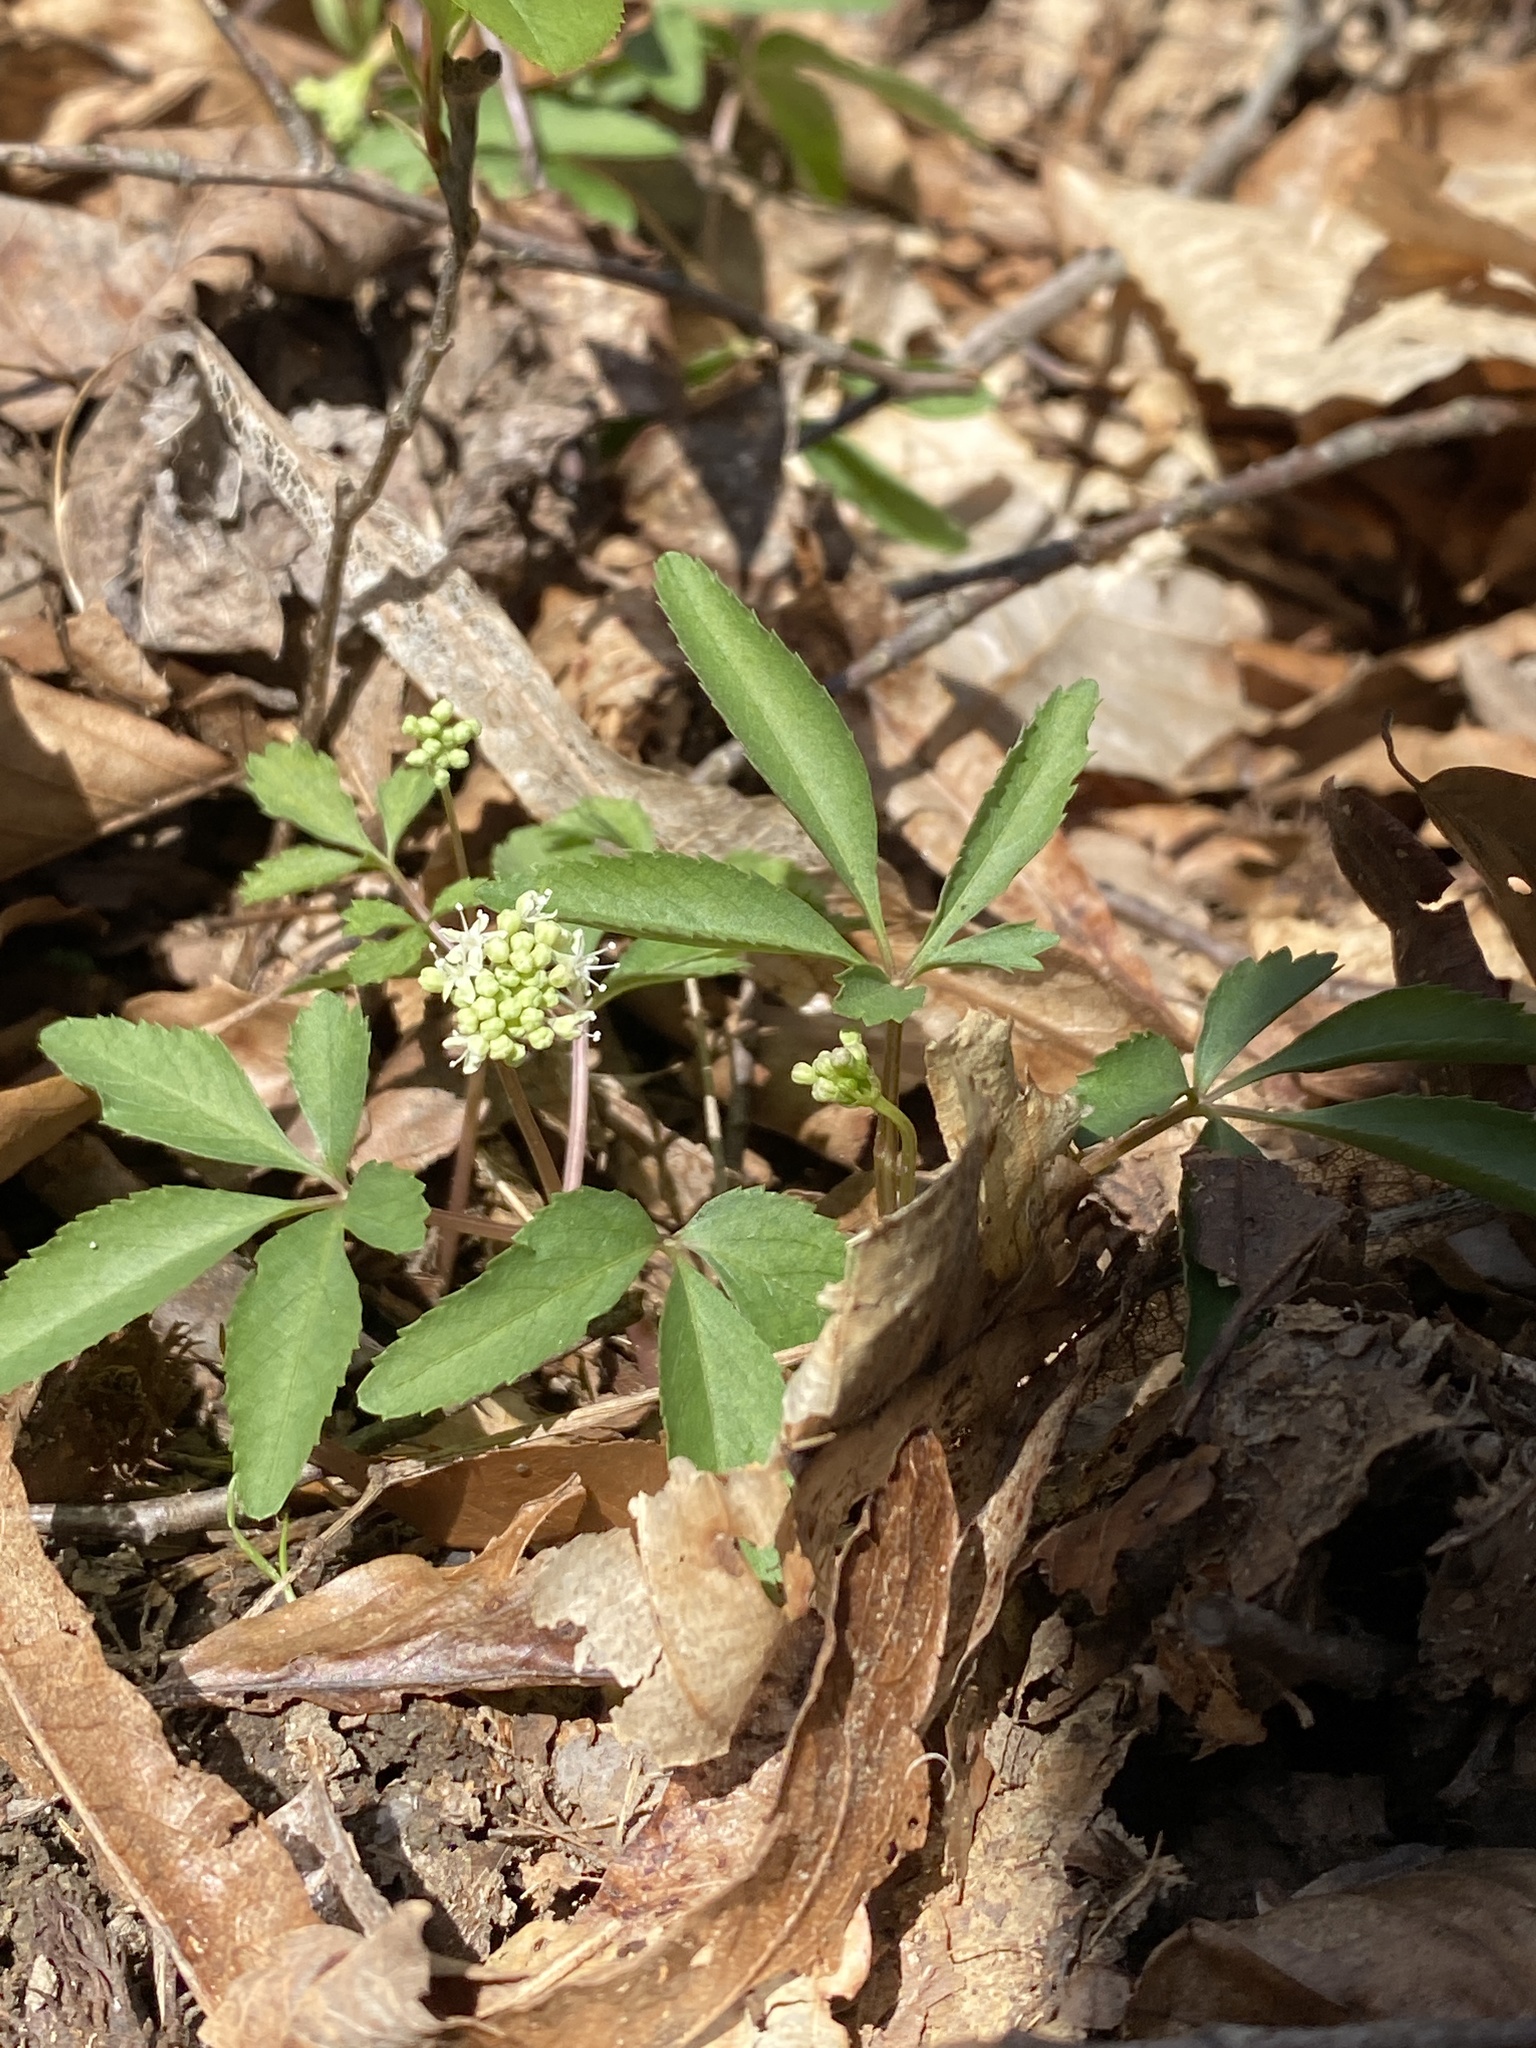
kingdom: Plantae
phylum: Tracheophyta
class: Magnoliopsida
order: Apiales
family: Araliaceae
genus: Panax
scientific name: Panax trifolius
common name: Dwarf ginseng
